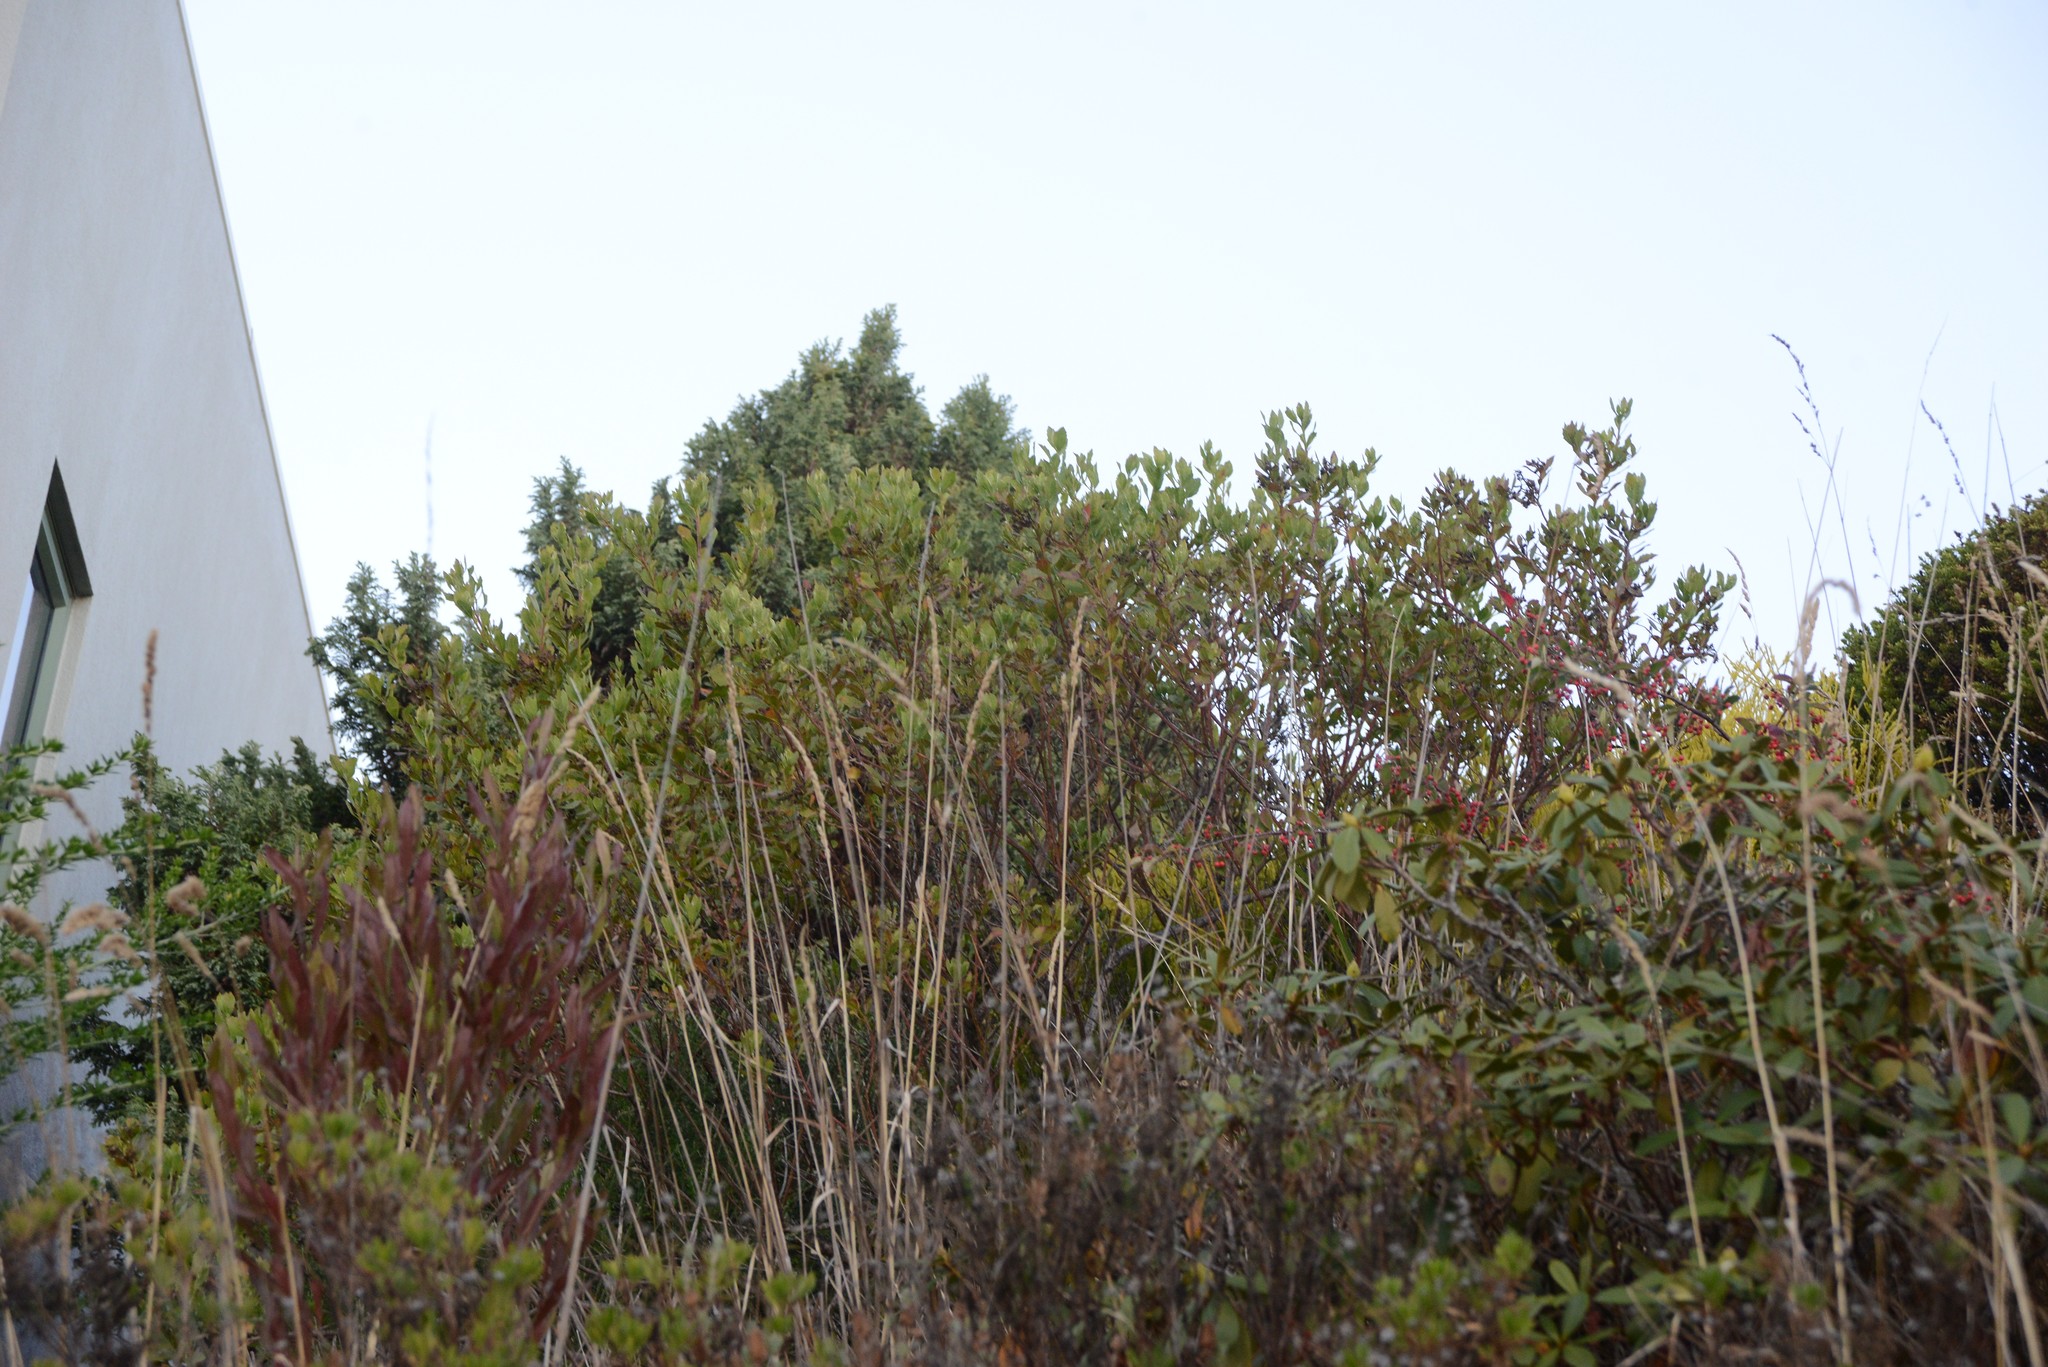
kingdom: Plantae
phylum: Tracheophyta
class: Magnoliopsida
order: Asterales
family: Asteraceae
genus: Osteospermum
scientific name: Osteospermum moniliferum
